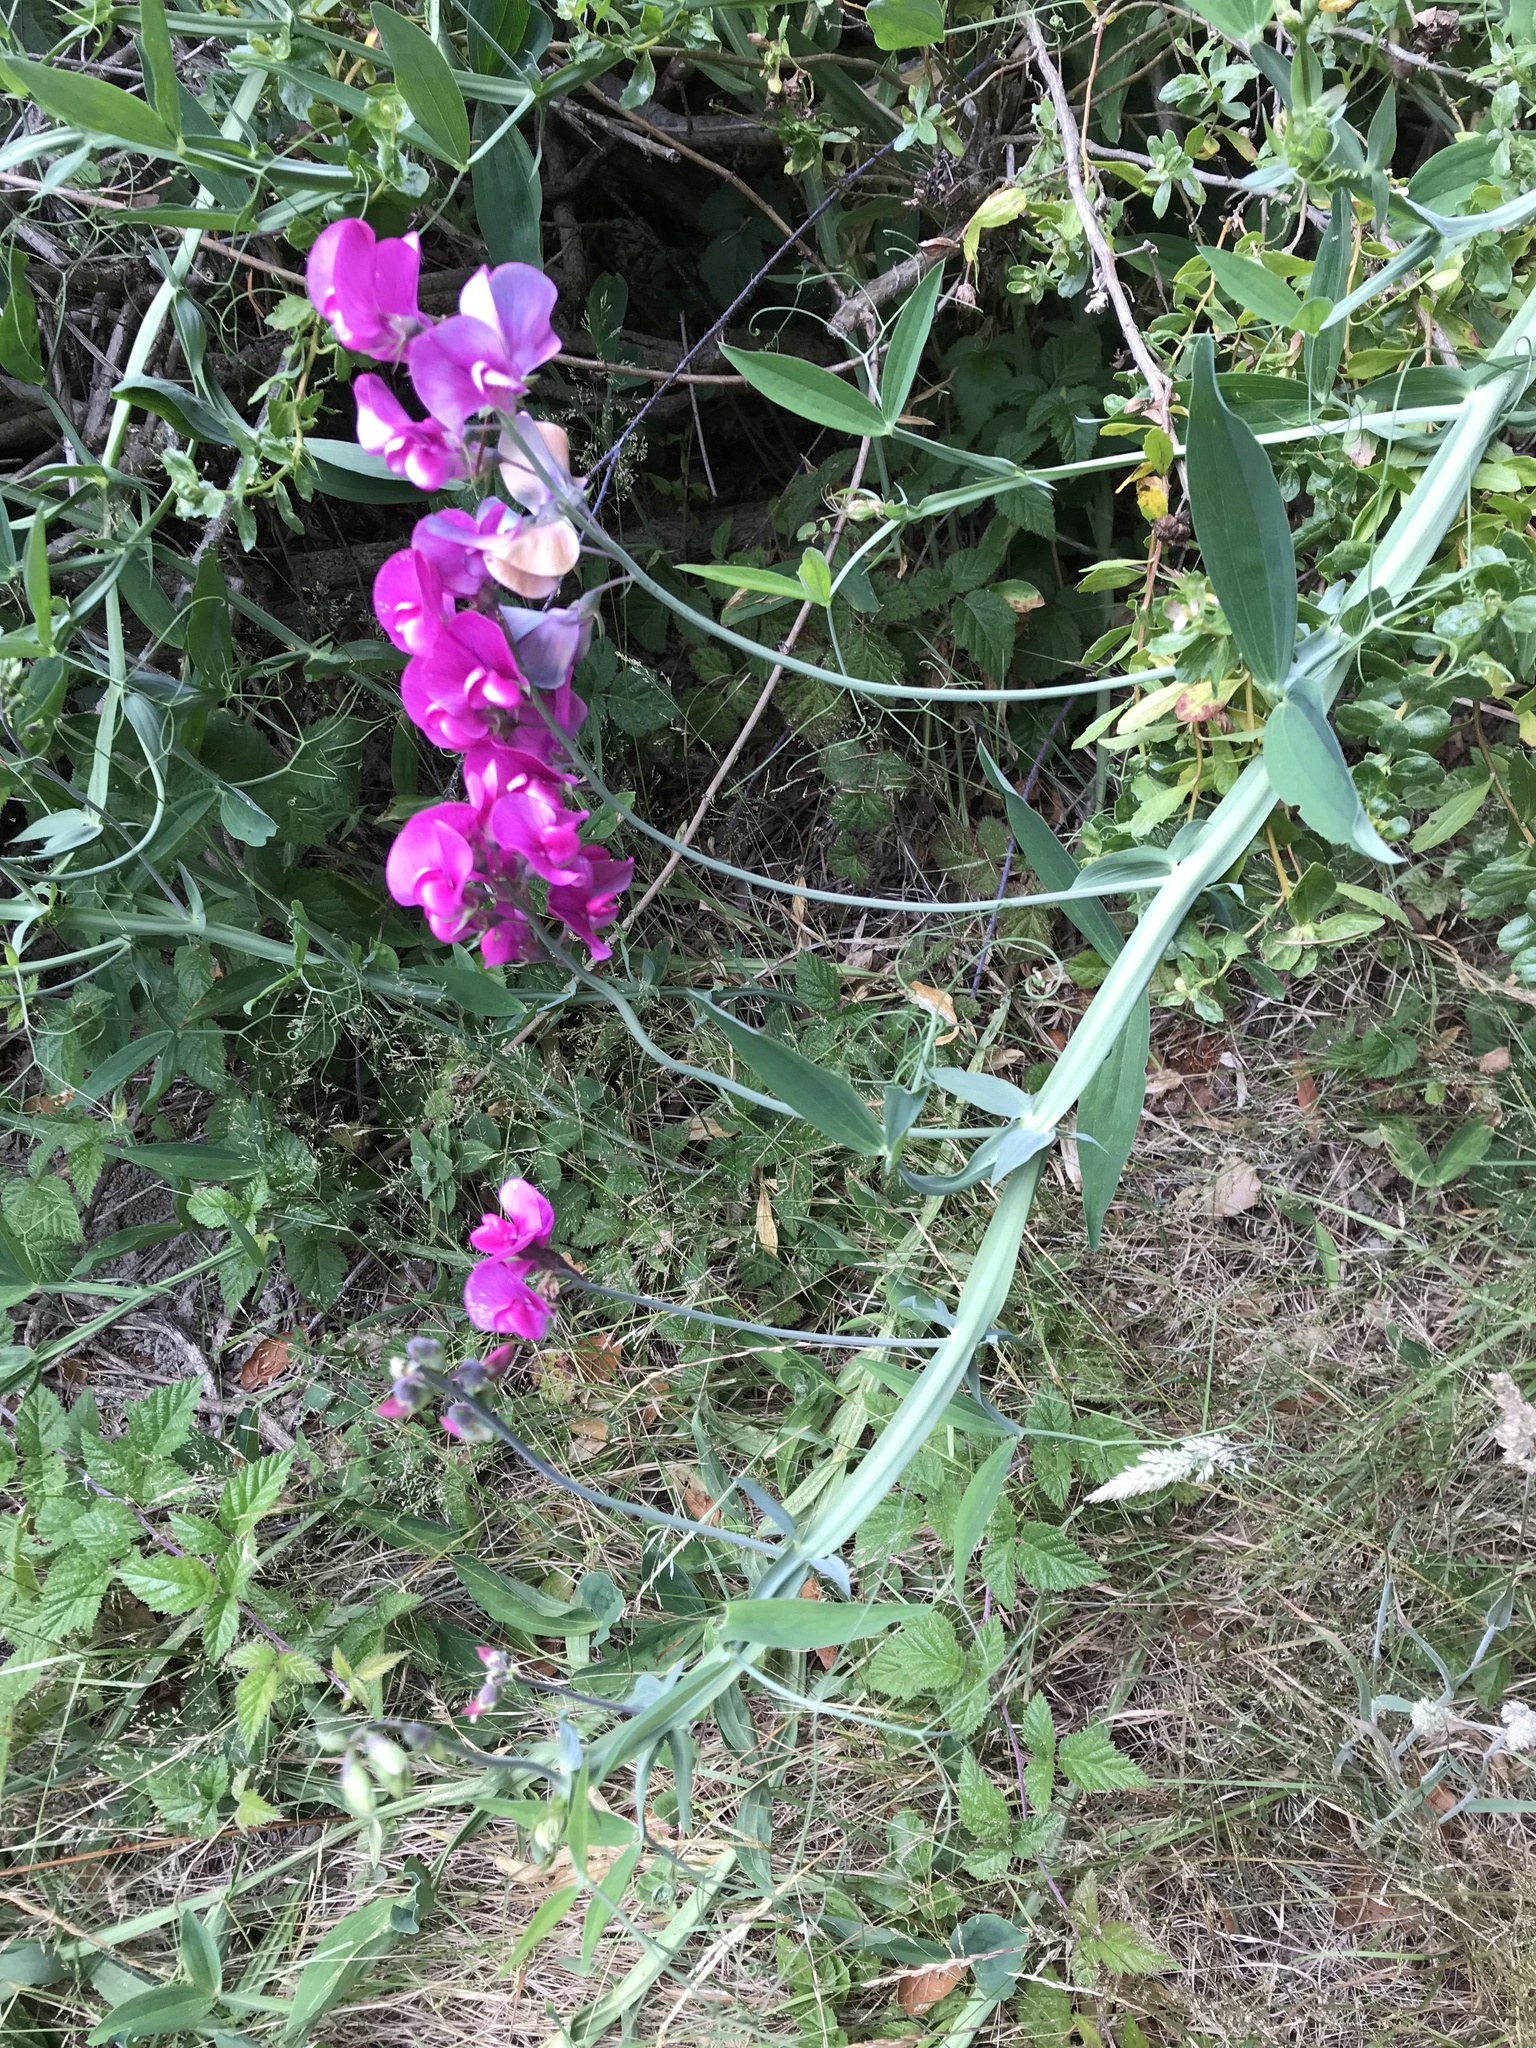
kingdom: Plantae
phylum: Tracheophyta
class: Magnoliopsida
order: Fabales
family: Fabaceae
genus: Lathyrus
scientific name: Lathyrus latifolius
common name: Perennial pea
